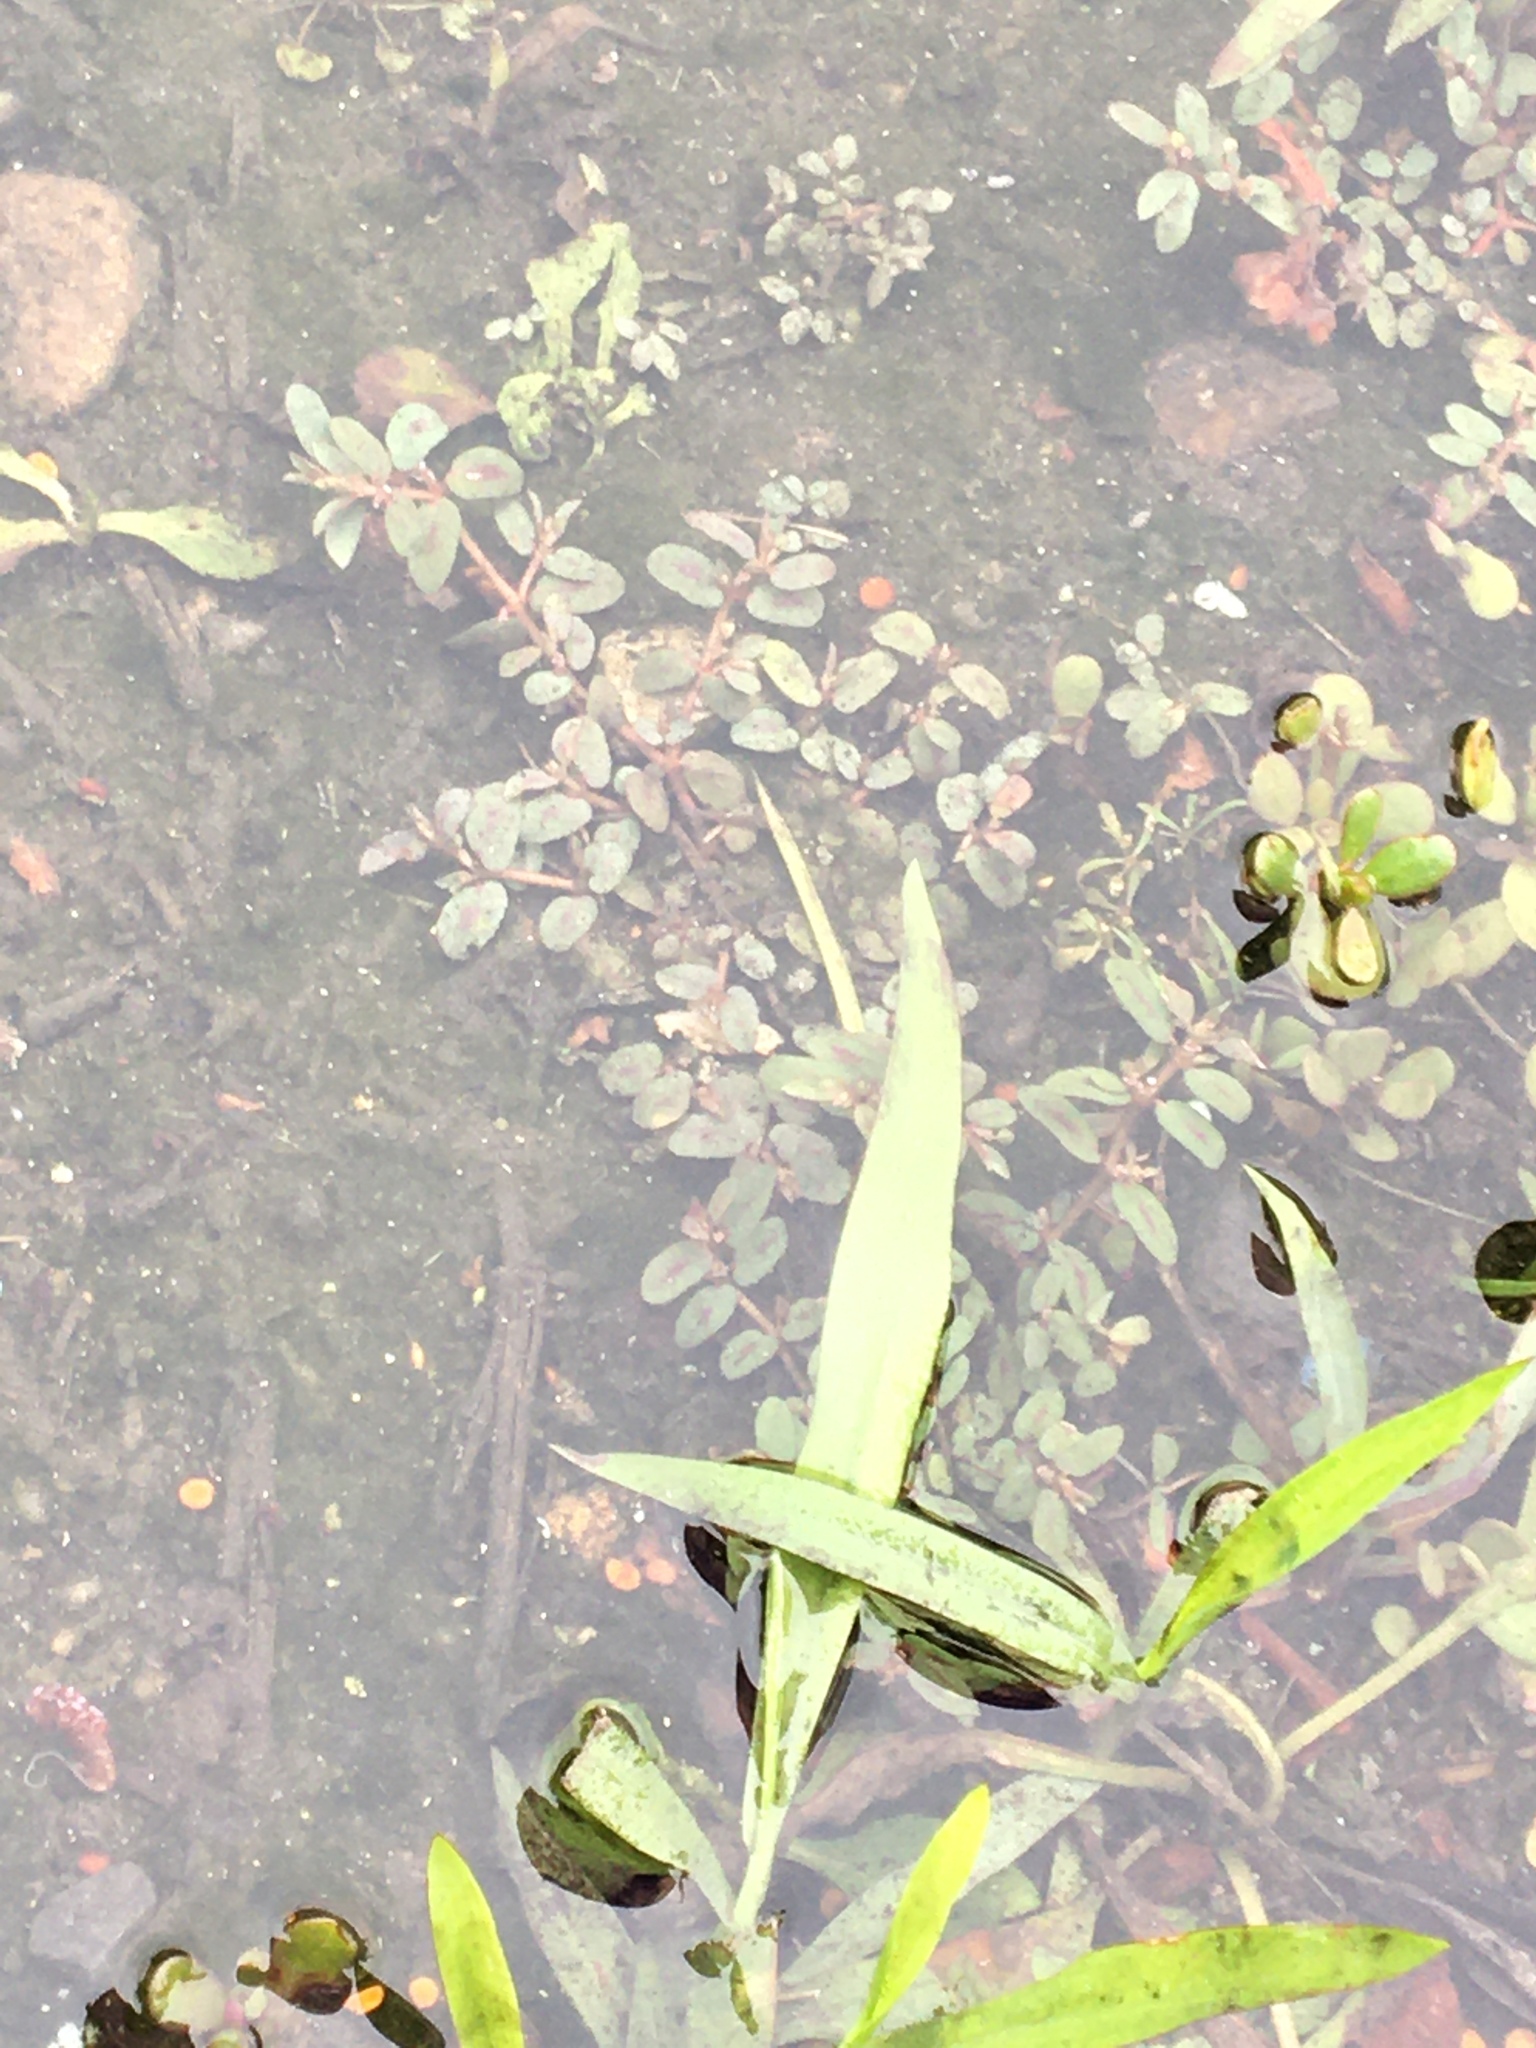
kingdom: Plantae
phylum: Tracheophyta
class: Magnoliopsida
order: Malpighiales
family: Euphorbiaceae
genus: Euphorbia
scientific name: Euphorbia maculata
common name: Spotted spurge
